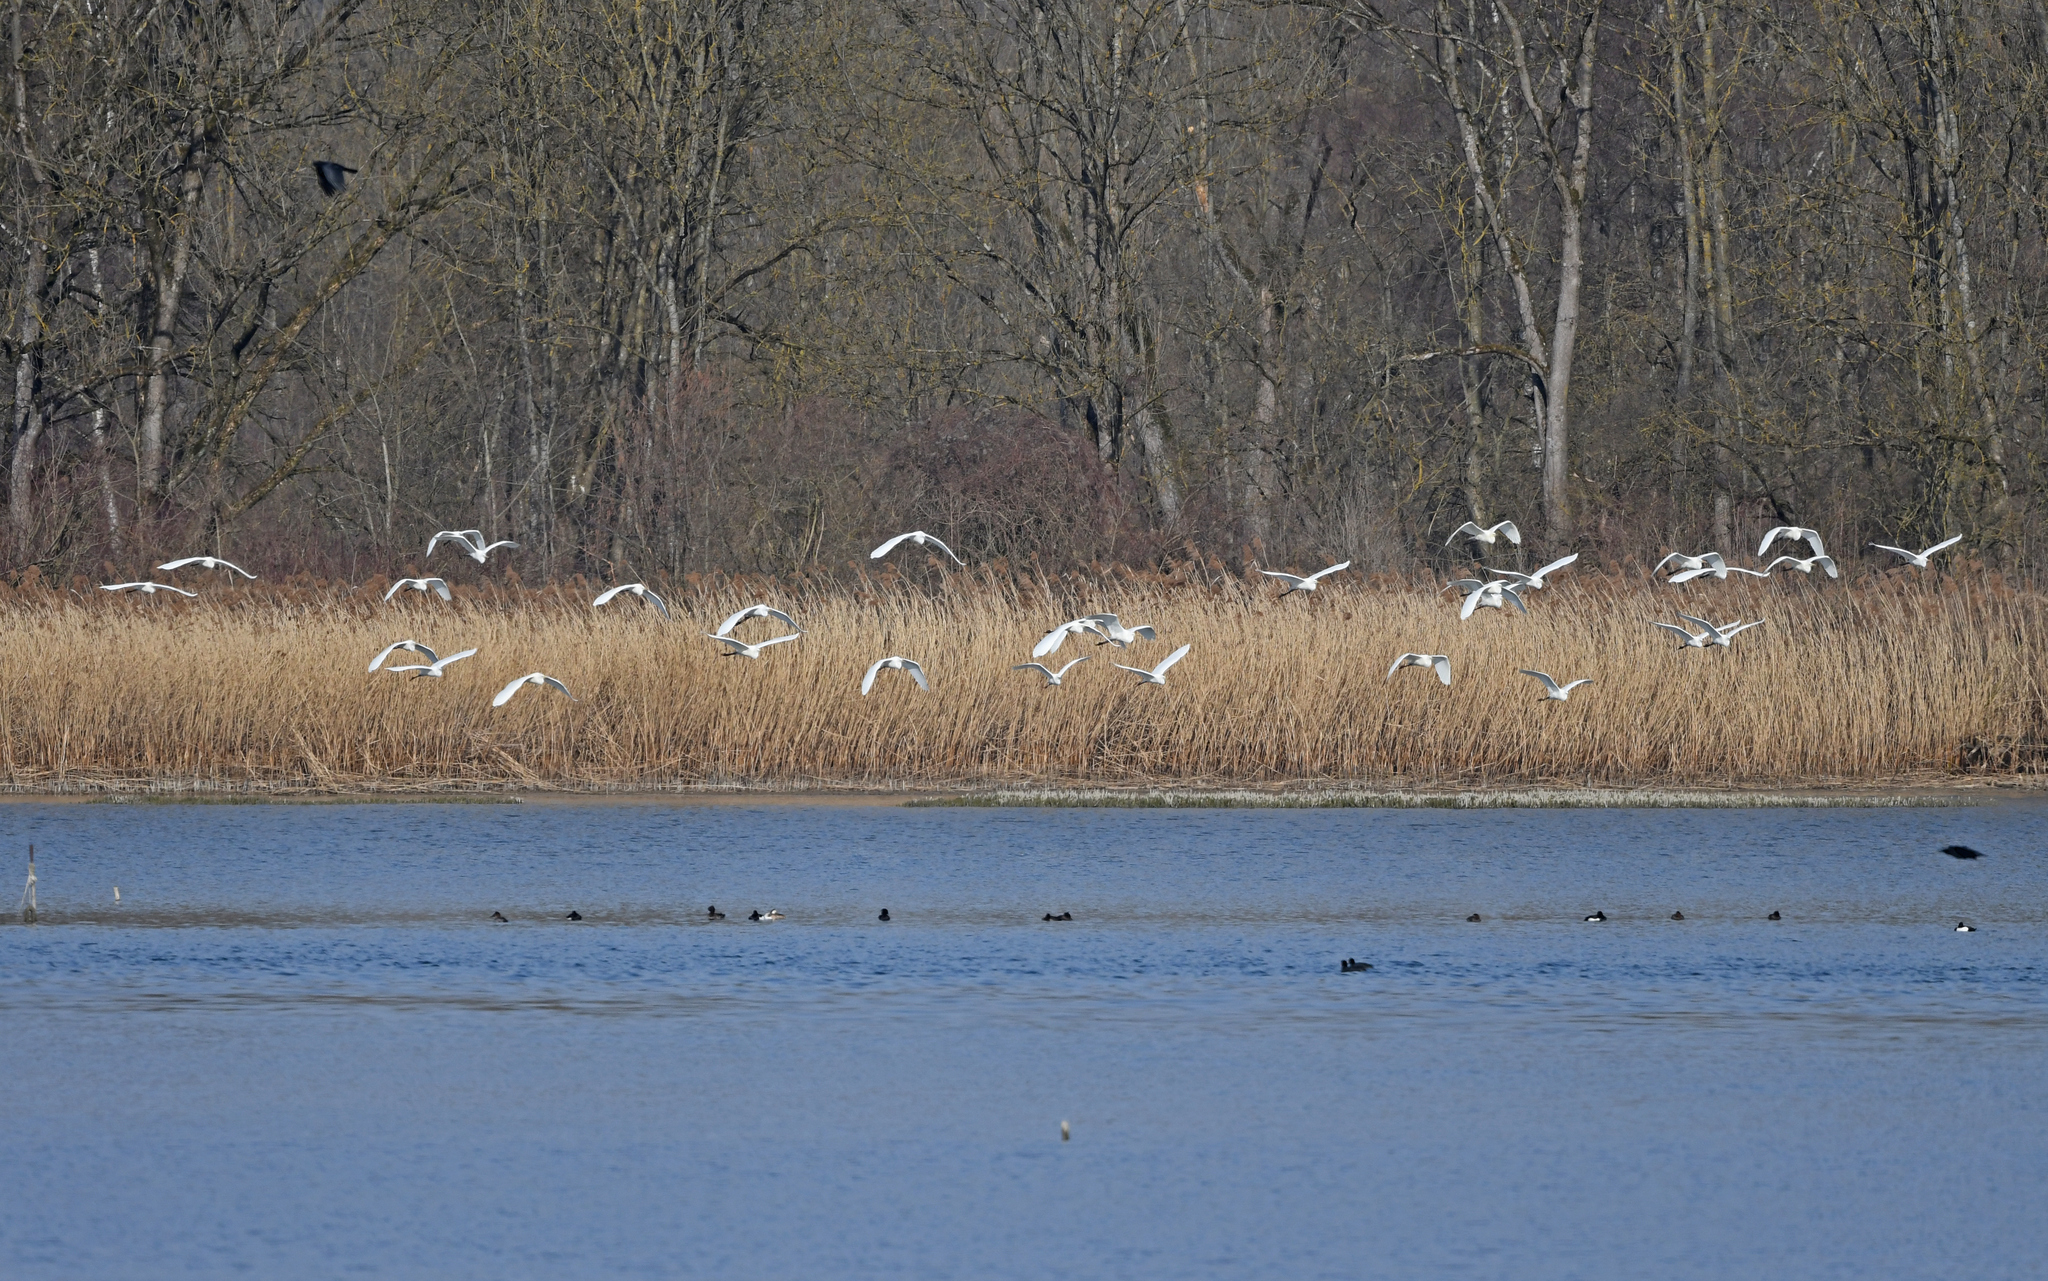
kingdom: Animalia
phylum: Chordata
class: Aves
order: Pelecaniformes
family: Ardeidae
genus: Ardea
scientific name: Ardea alba
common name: Great egret
